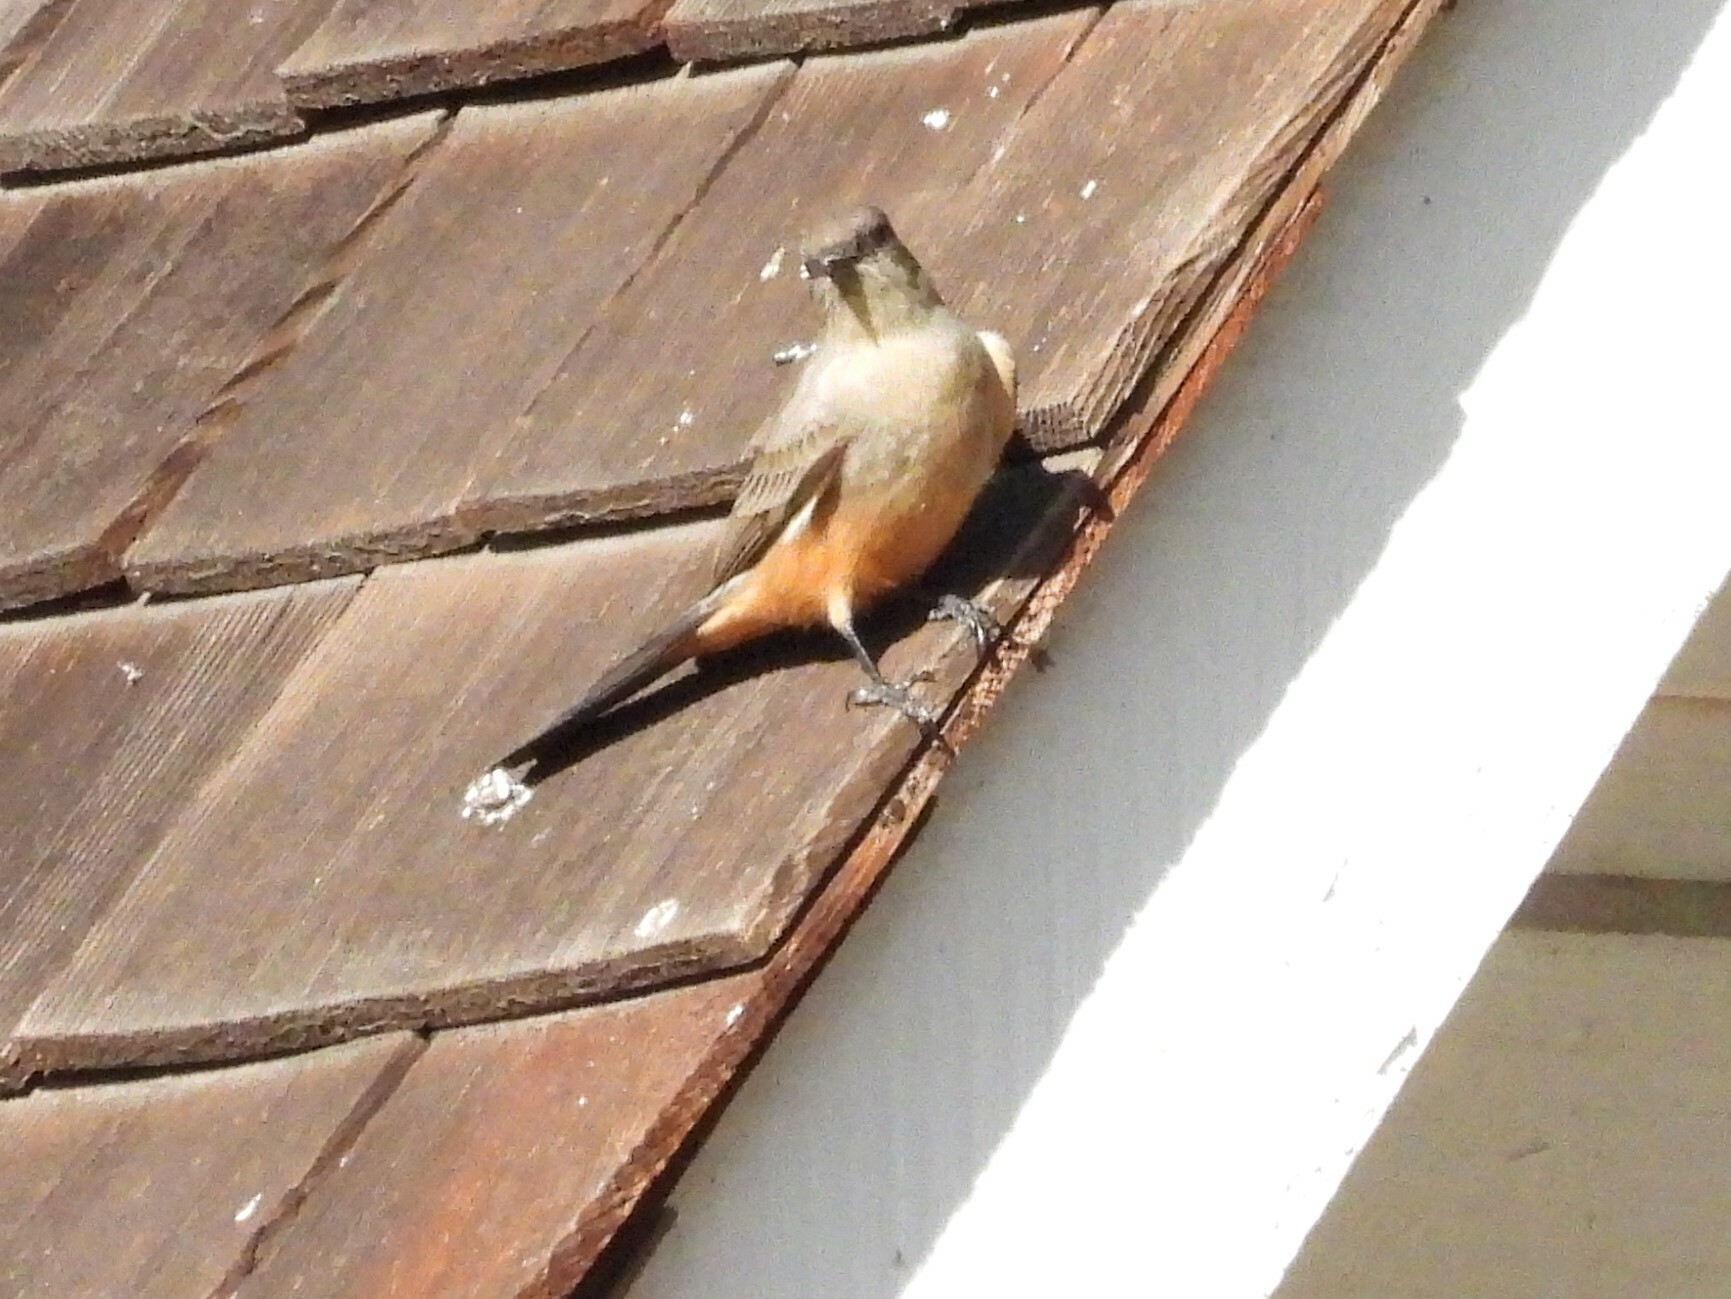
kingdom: Animalia
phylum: Chordata
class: Aves
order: Passeriformes
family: Tyrannidae
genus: Sayornis
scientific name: Sayornis saya
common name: Say's phoebe
